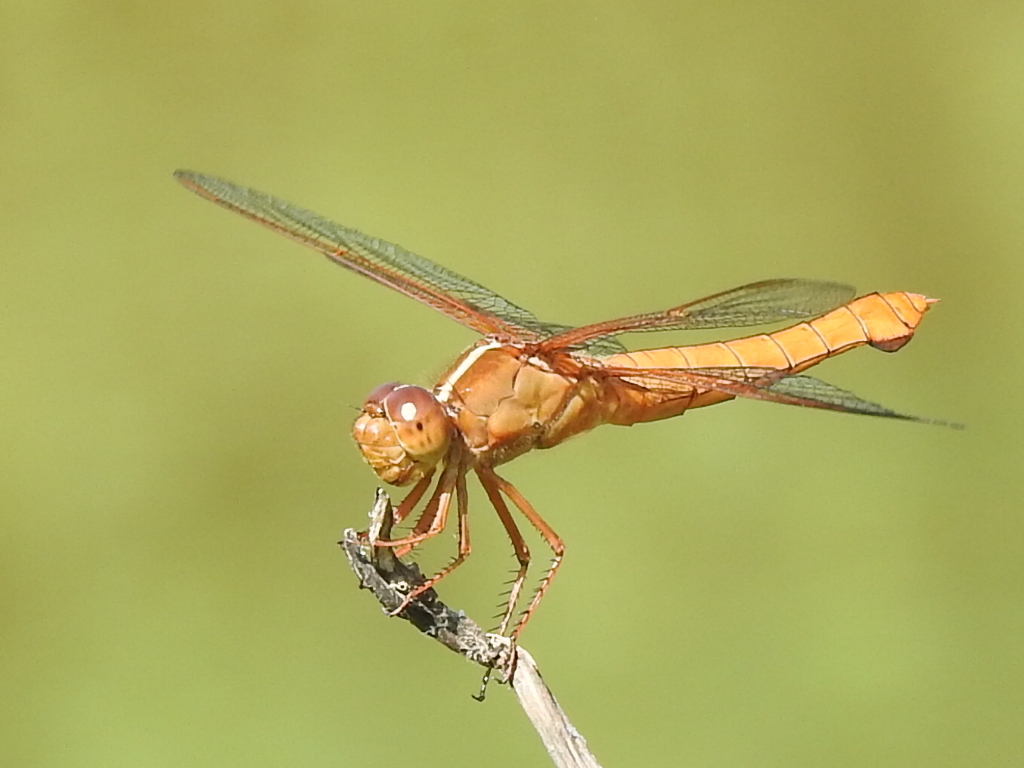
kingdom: Animalia
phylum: Arthropoda
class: Insecta
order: Odonata
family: Libellulidae
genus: Libellula
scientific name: Libellula croceipennis
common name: Neon skimmer
